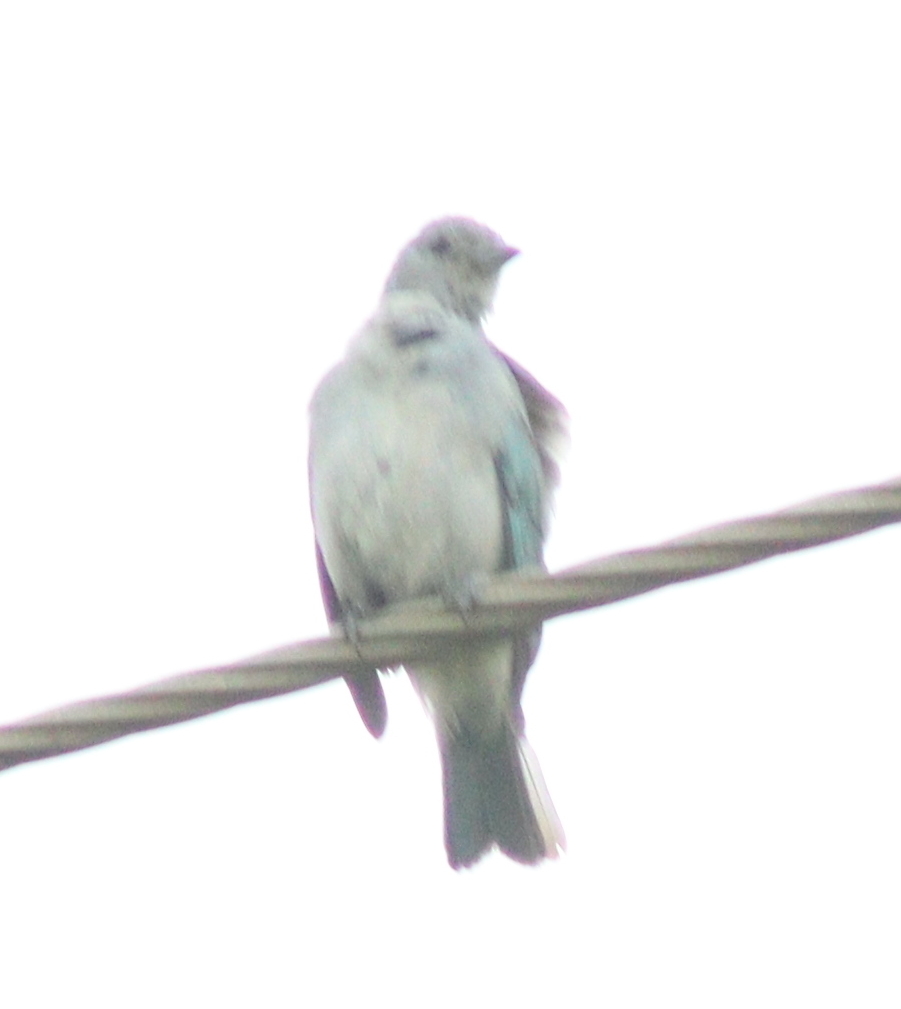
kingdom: Animalia
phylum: Chordata
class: Aves
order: Passeriformes
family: Thraupidae
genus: Thraupis
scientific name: Thraupis sayaca
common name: Sayaca tanager
